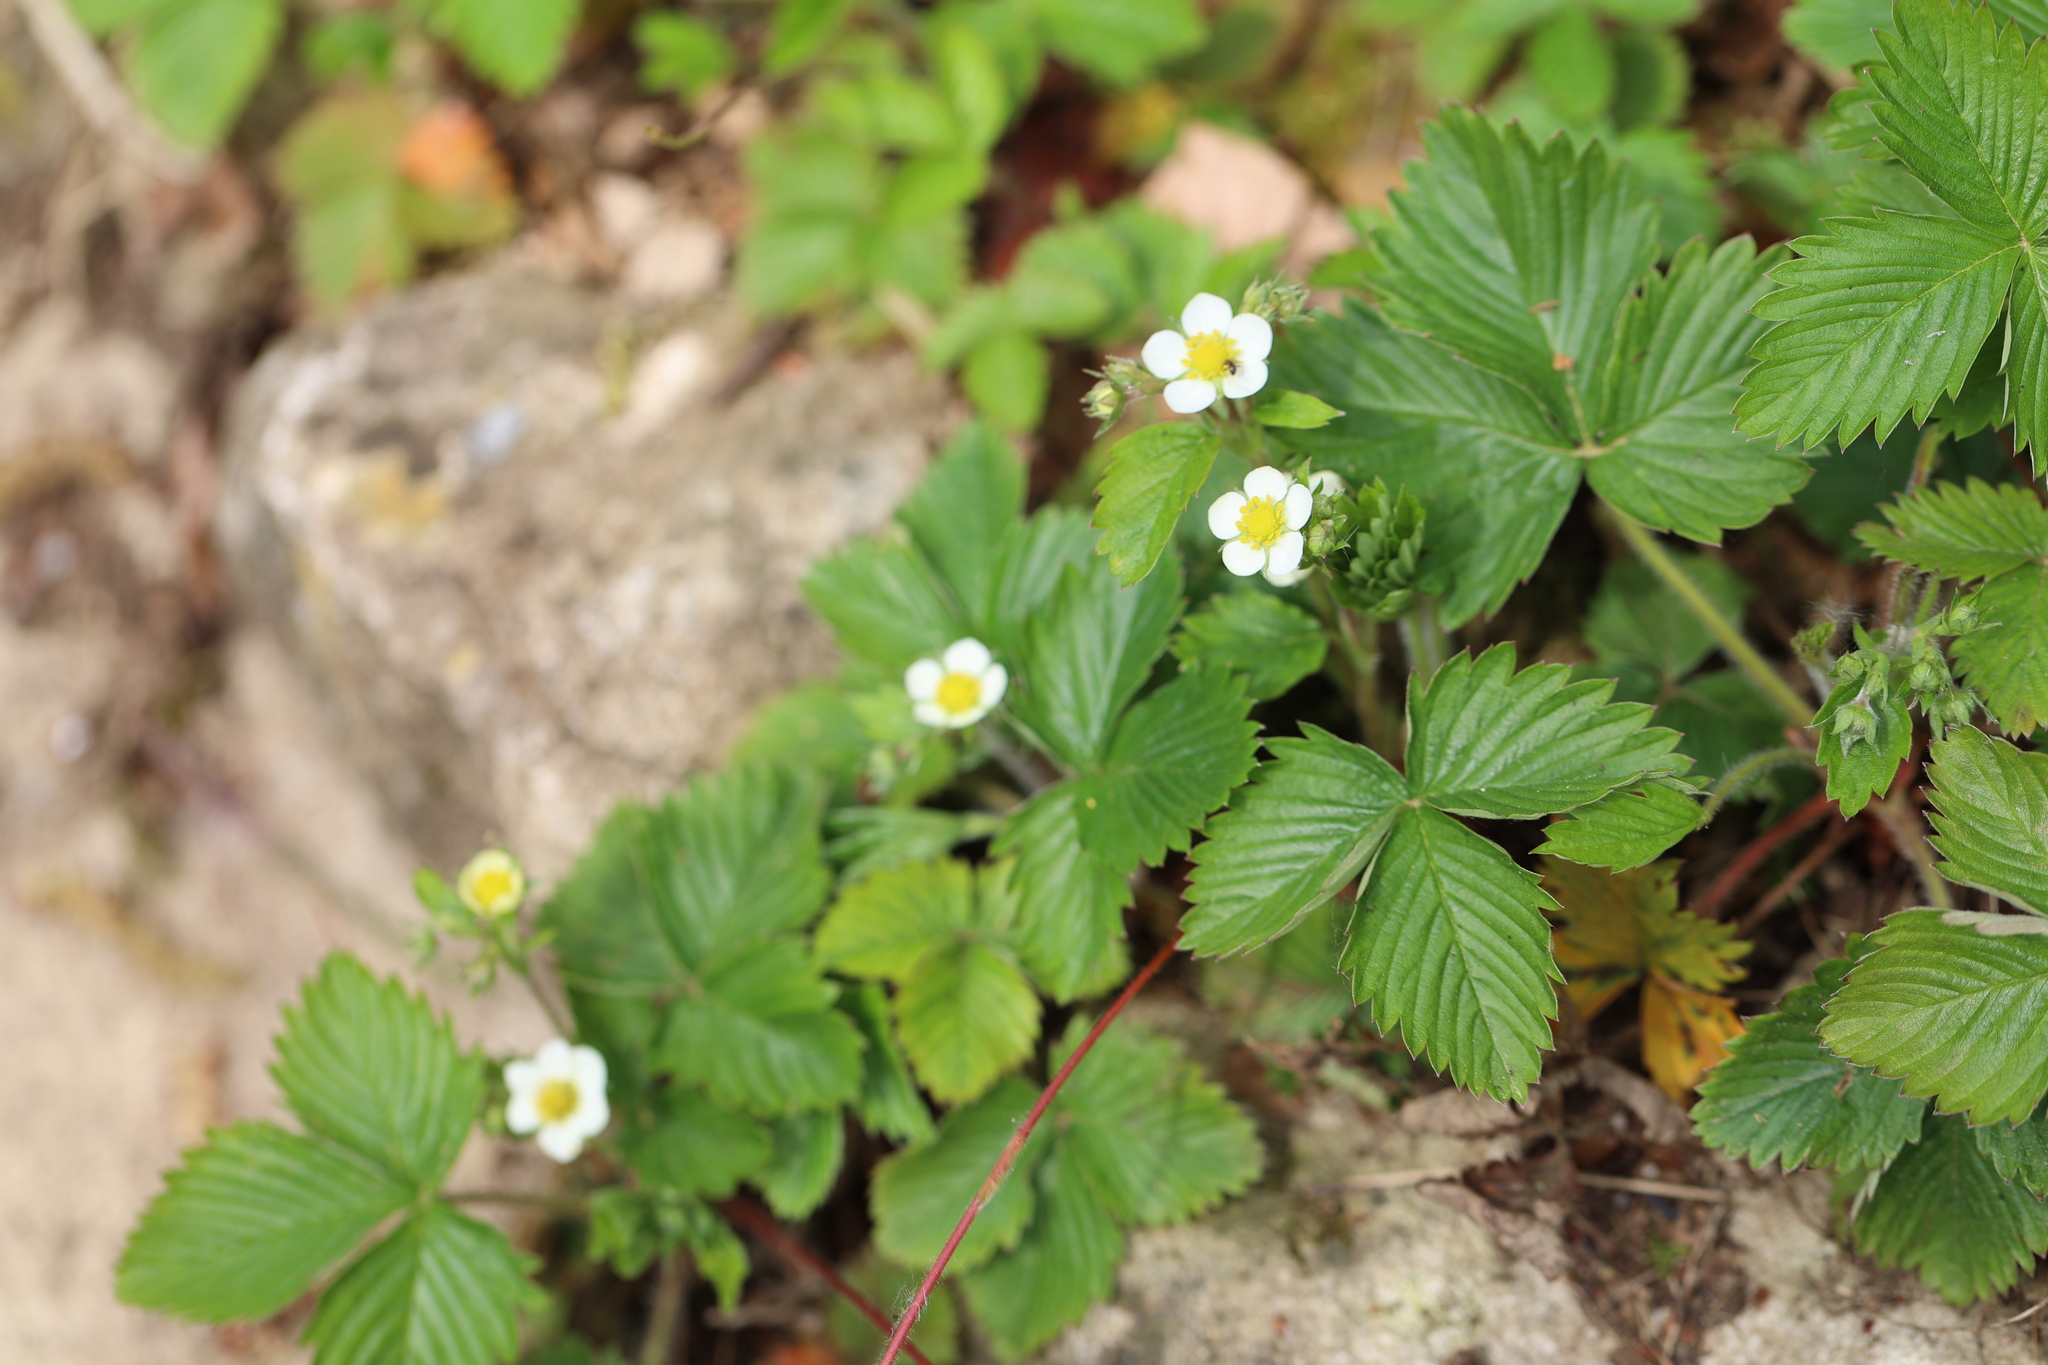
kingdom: Plantae
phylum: Tracheophyta
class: Magnoliopsida
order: Rosales
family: Rosaceae
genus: Fragaria
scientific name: Fragaria vesca
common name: Wild strawberry
